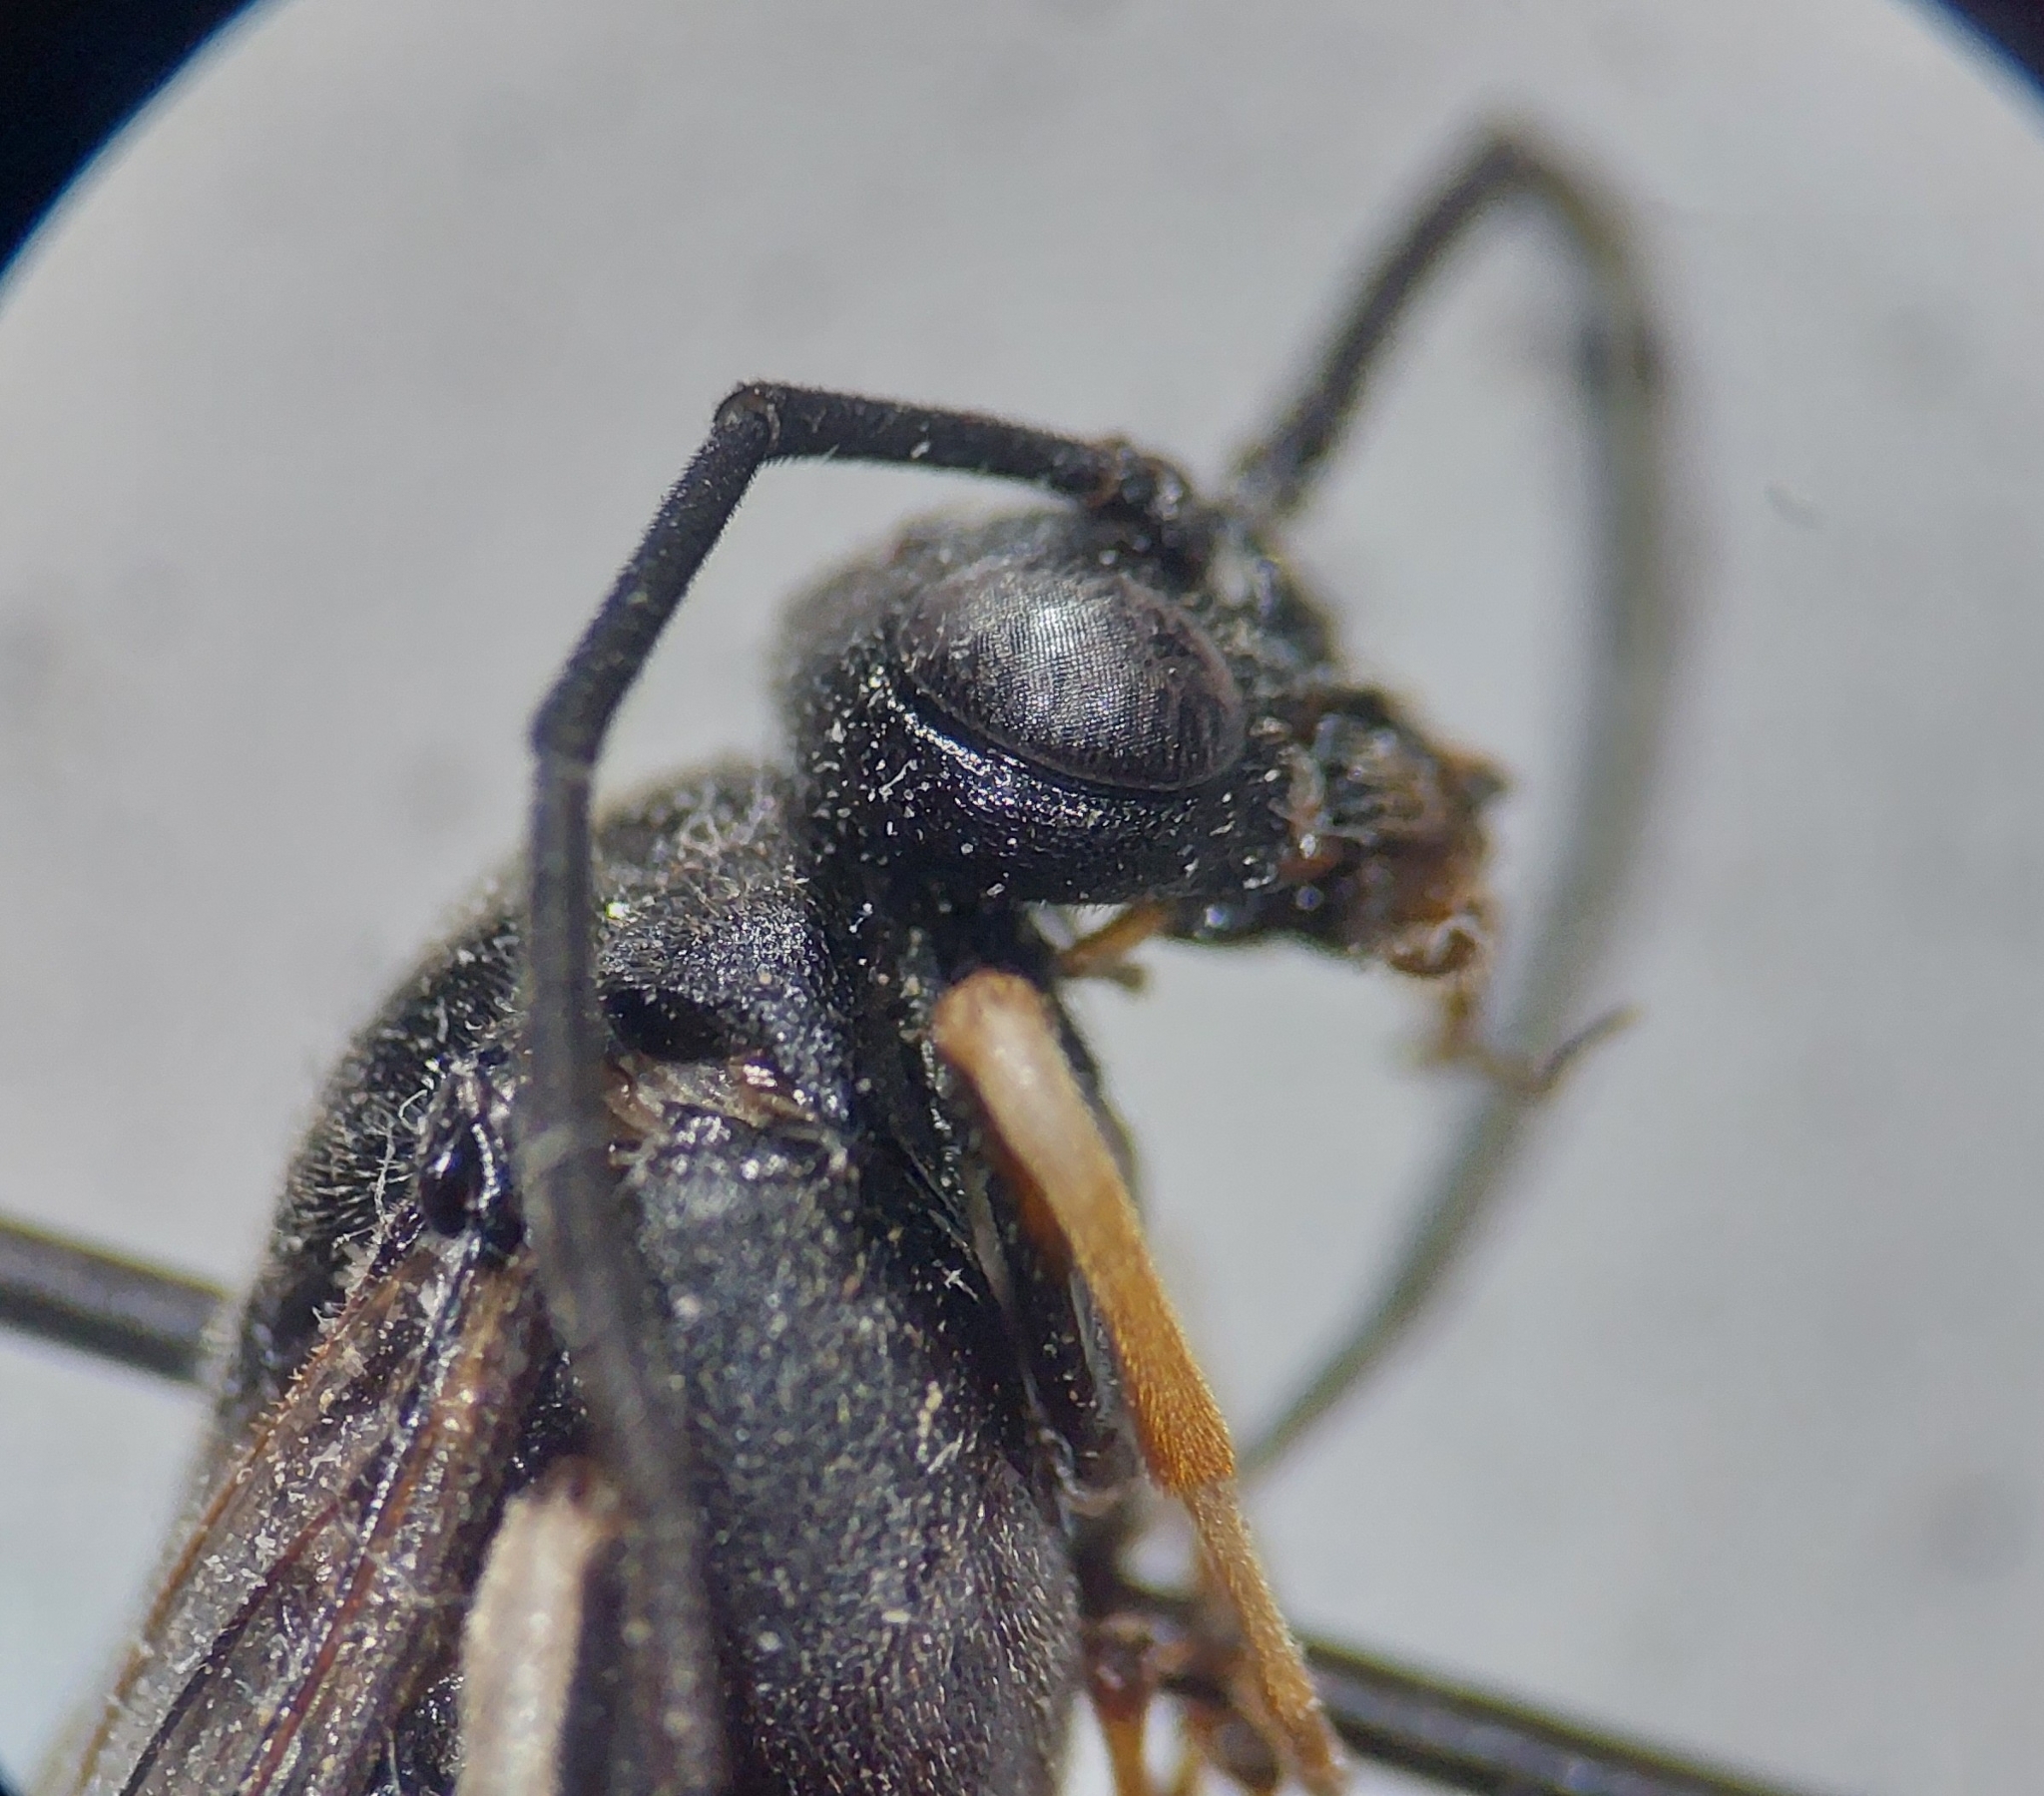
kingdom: Animalia
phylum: Arthropoda
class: Insecta
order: Hymenoptera
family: Tenthredinidae
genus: Craesus
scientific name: Craesus septentrionalis
